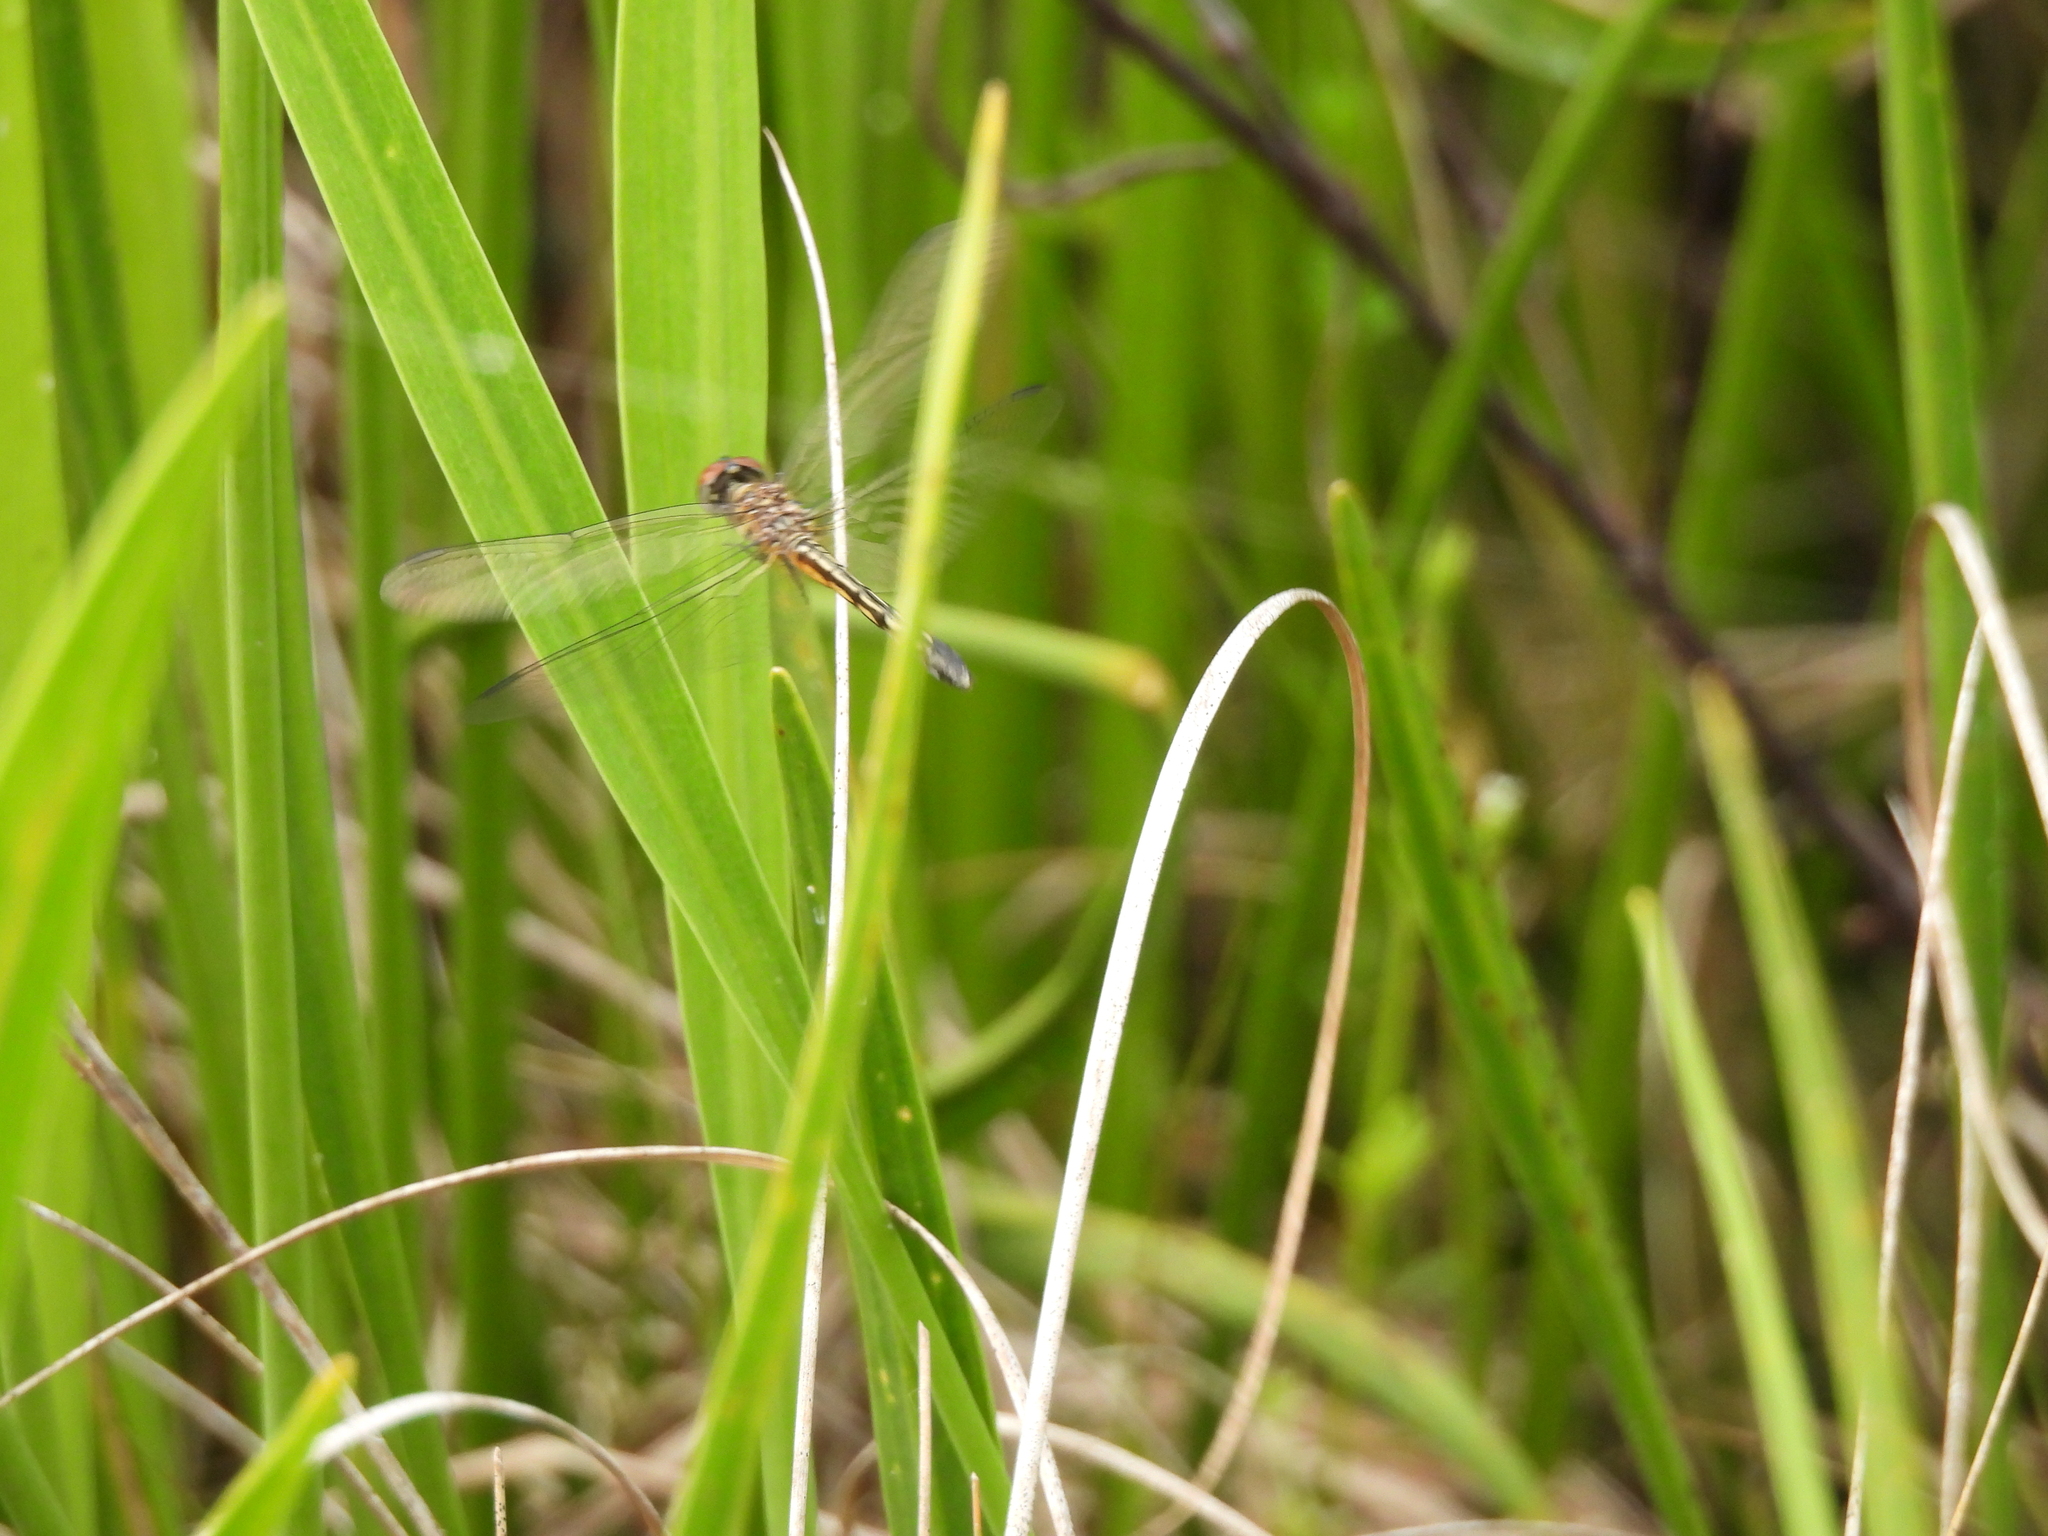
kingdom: Animalia
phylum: Arthropoda
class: Insecta
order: Odonata
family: Libellulidae
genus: Pachydiplax
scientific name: Pachydiplax longipennis
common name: Blue dasher
